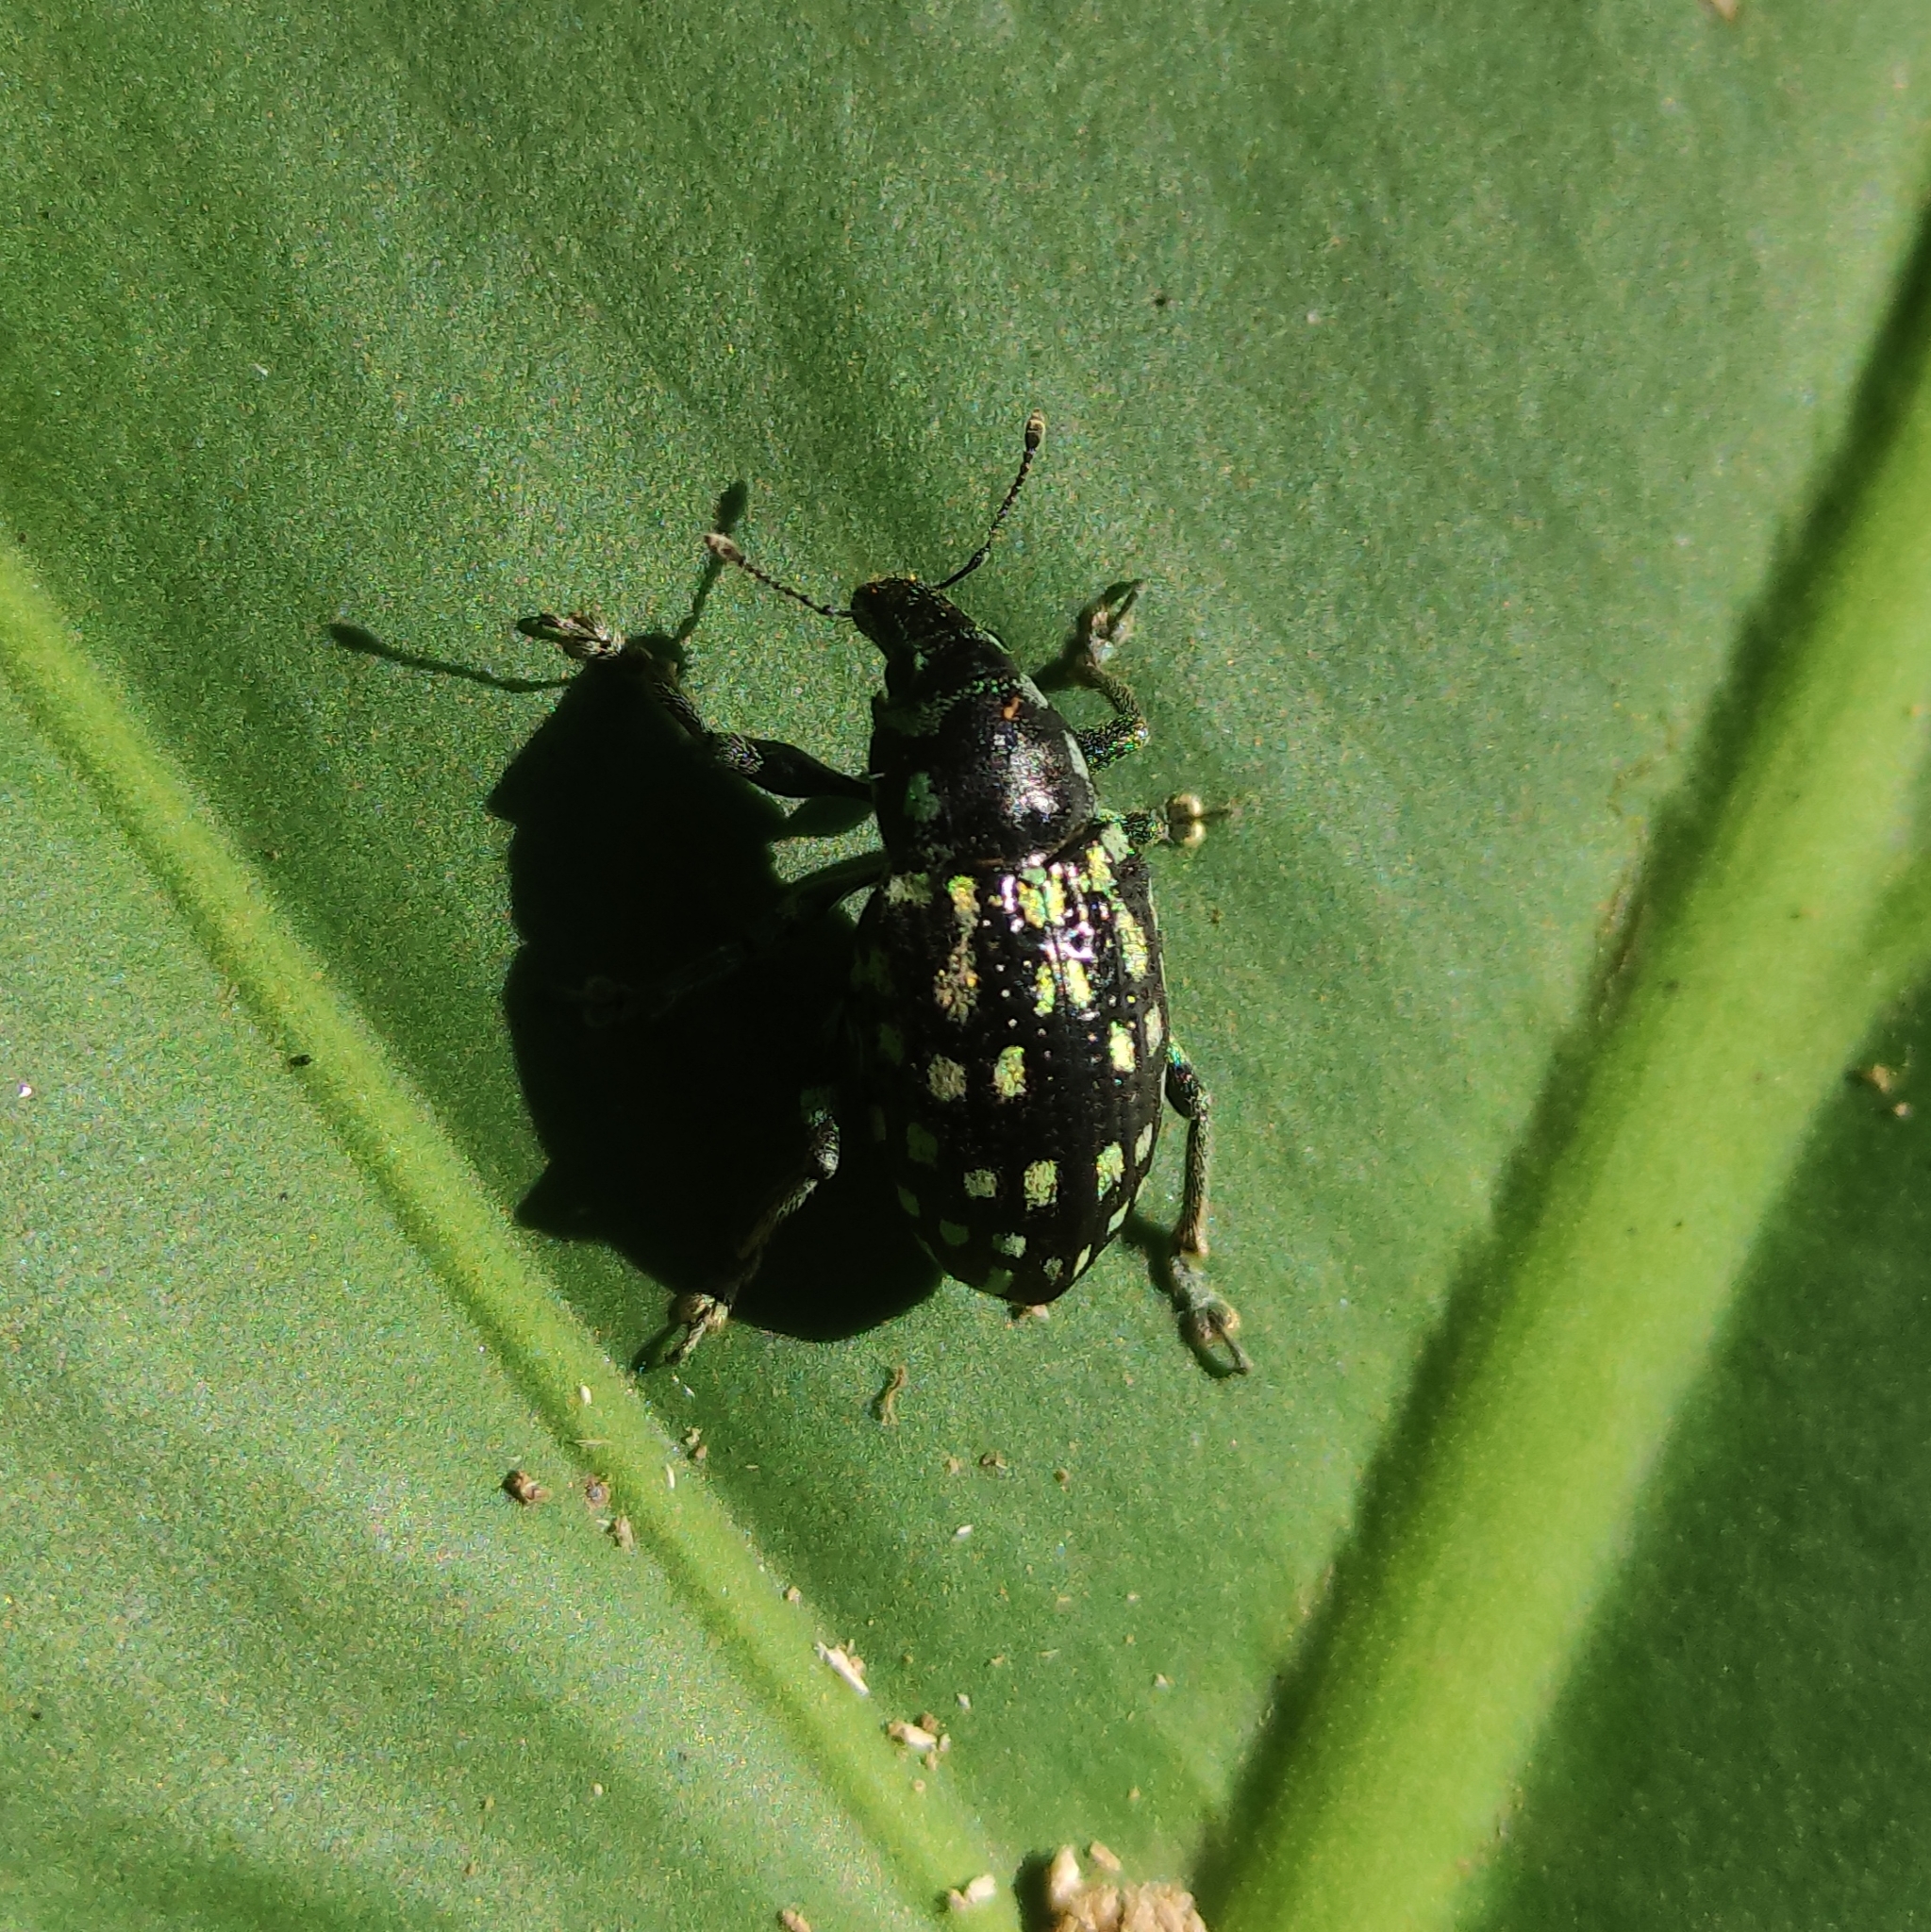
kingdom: Animalia
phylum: Arthropoda
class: Insecta
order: Coleoptera
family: Curculionidae
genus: Lordops
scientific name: Lordops schoenhelri
